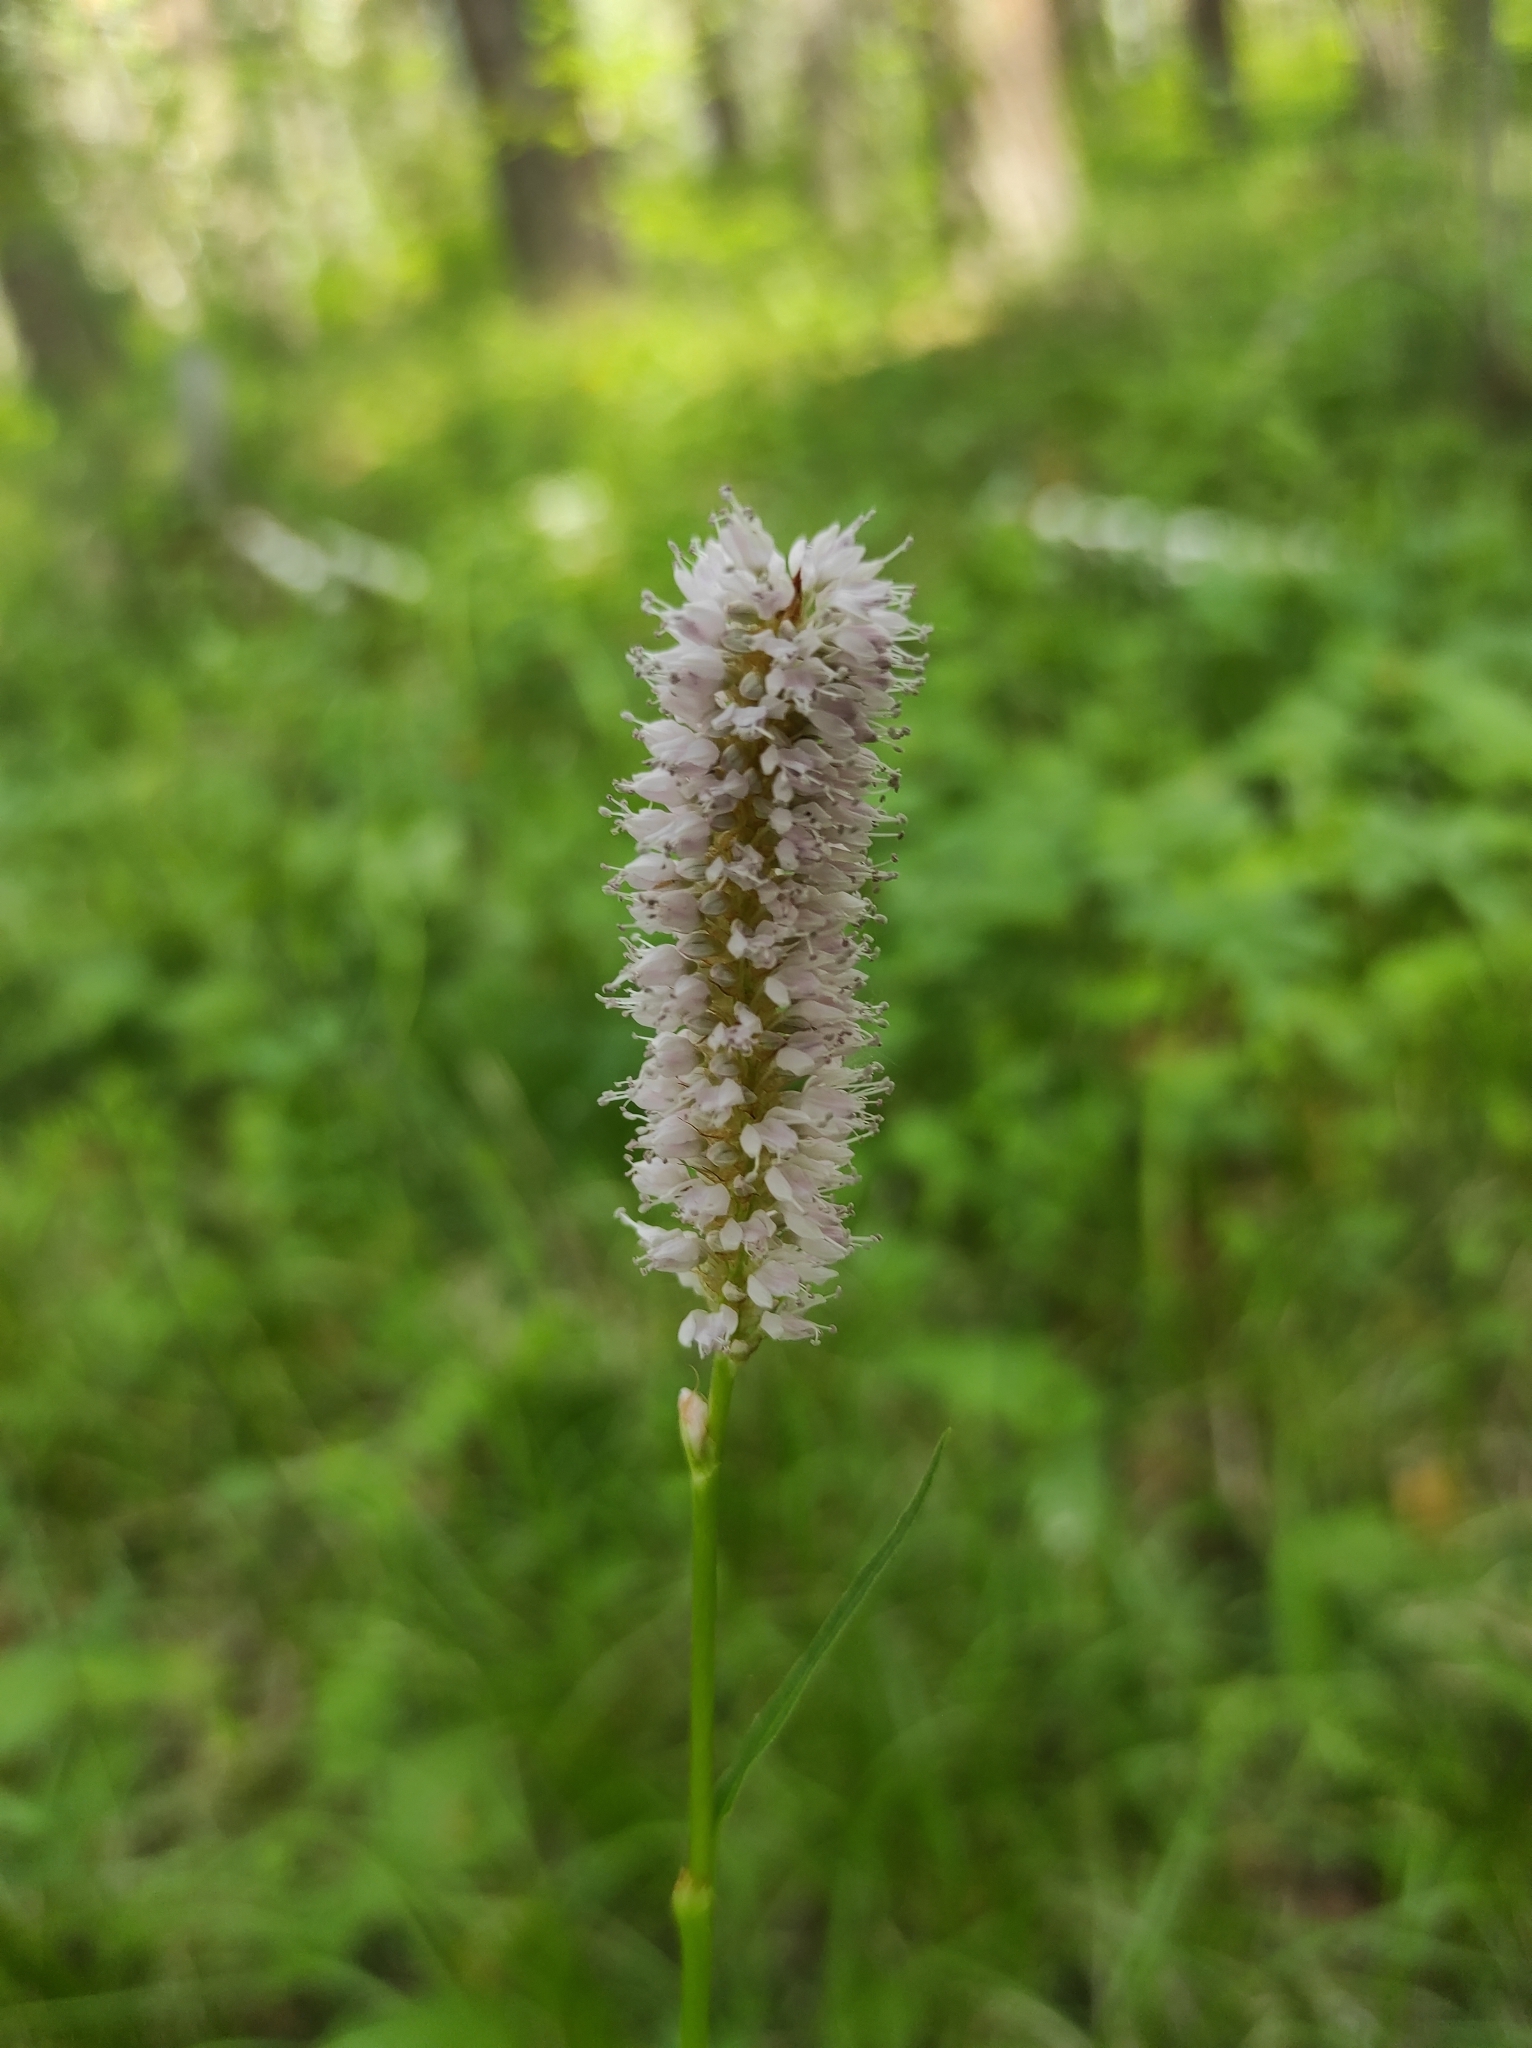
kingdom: Plantae
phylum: Tracheophyta
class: Magnoliopsida
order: Caryophyllales
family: Polygonaceae
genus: Bistorta
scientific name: Bistorta officinalis
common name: Common bistort
